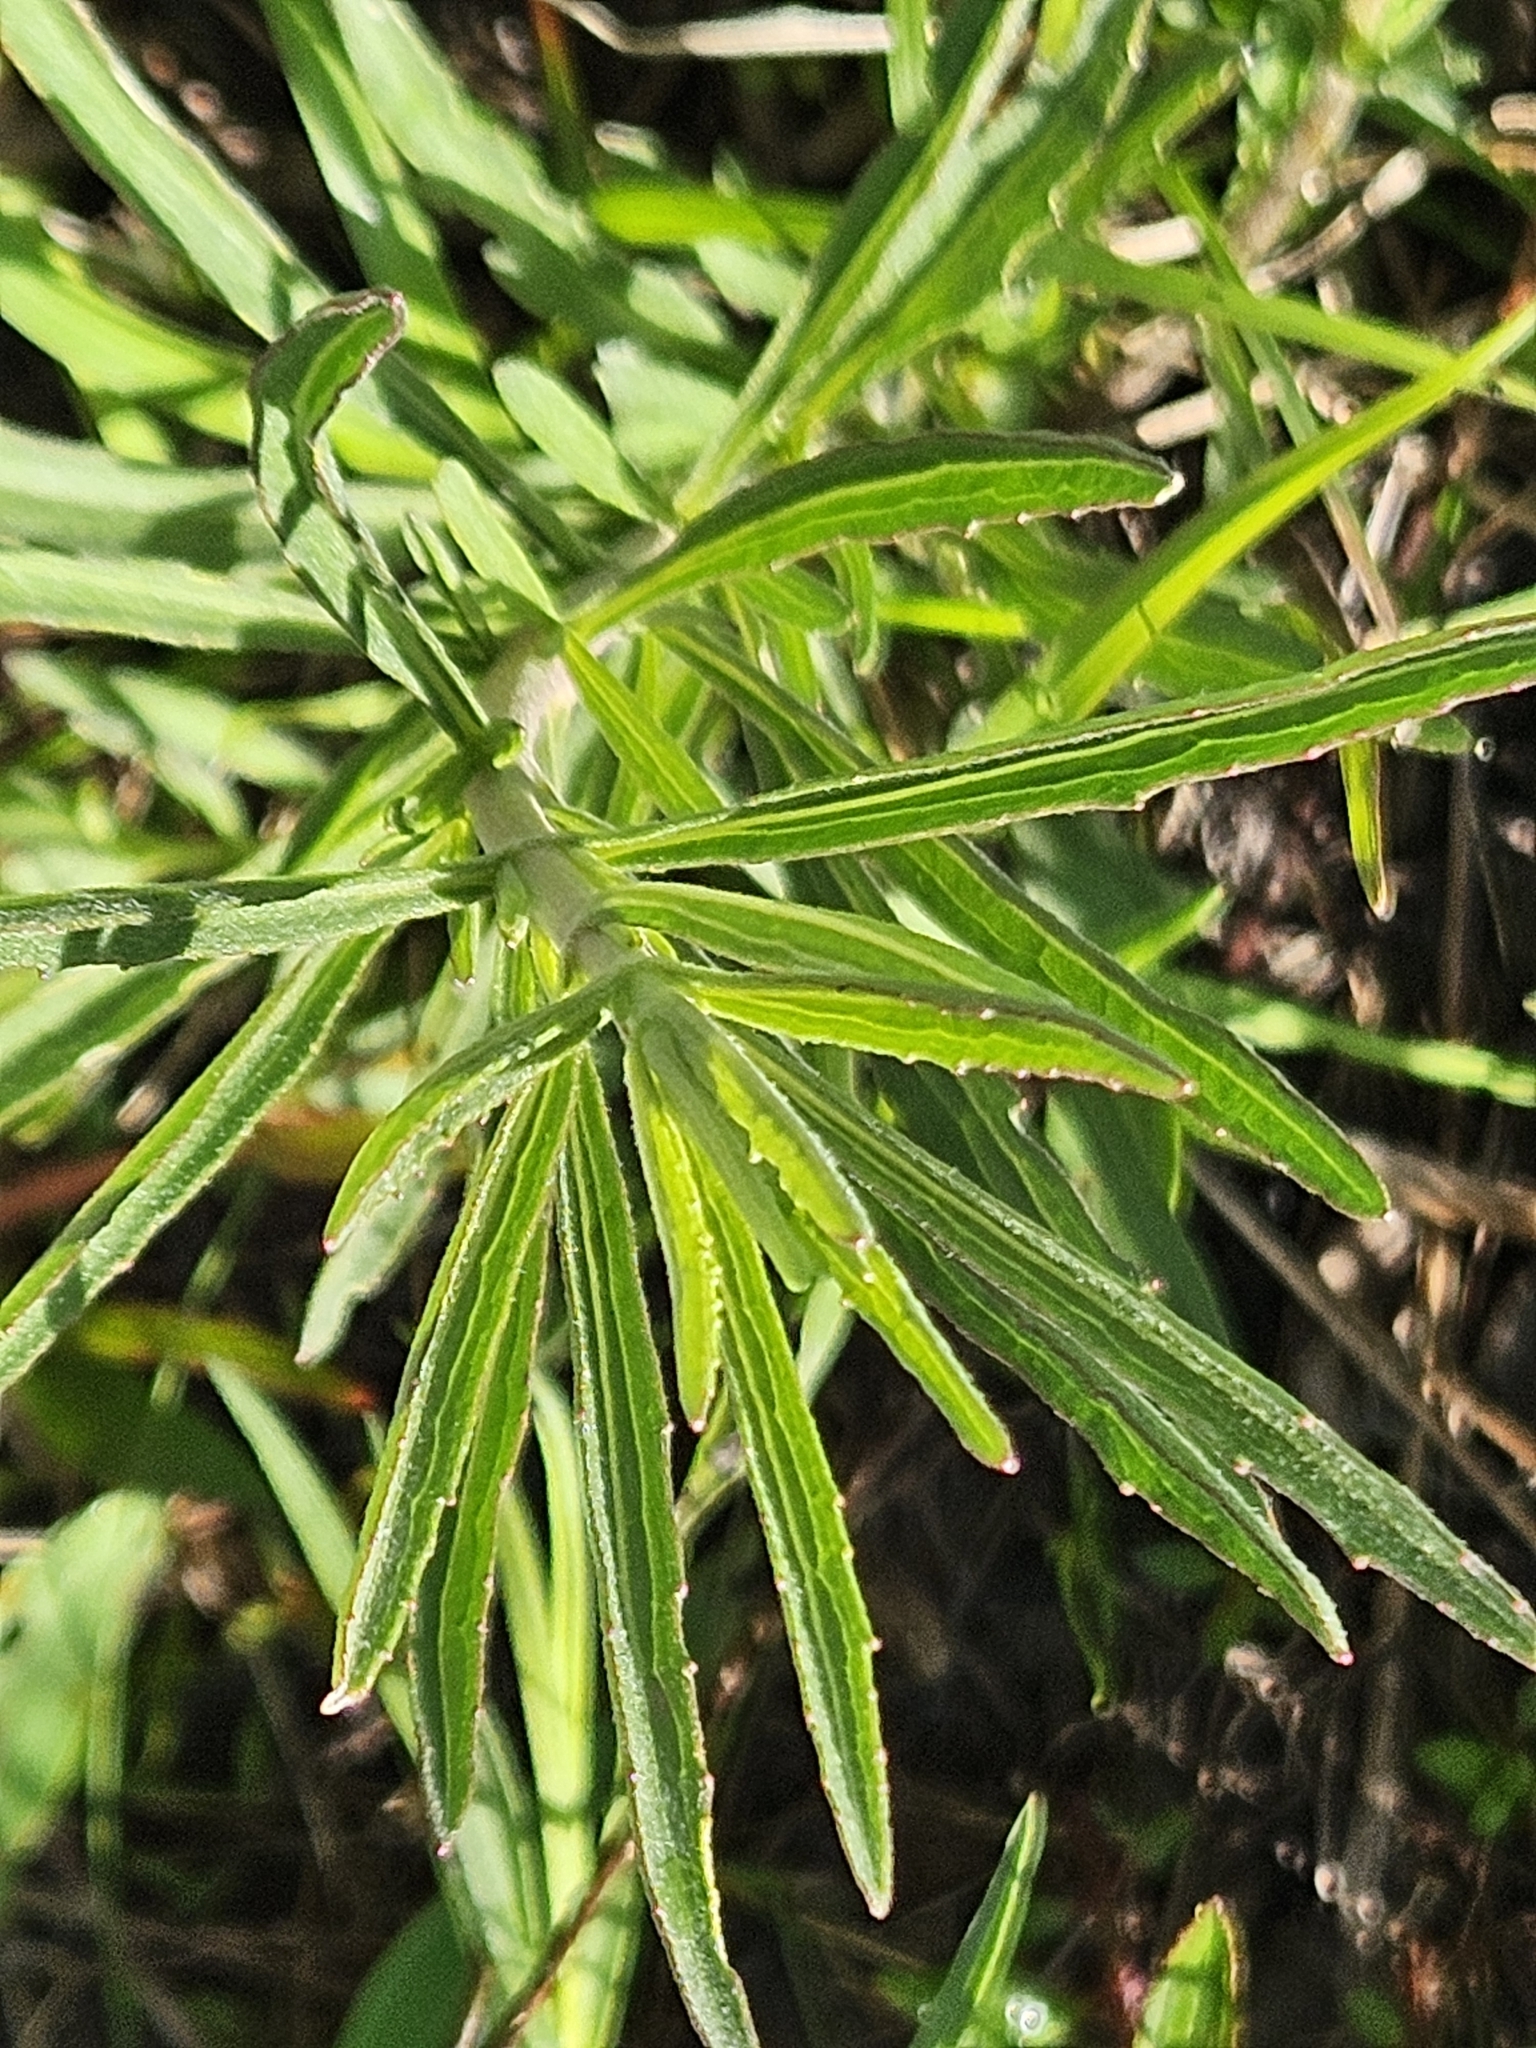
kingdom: Plantae
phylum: Tracheophyta
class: Magnoliopsida
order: Asterales
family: Asteraceae
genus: Eupatorium
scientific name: Eupatorium torreyanum
